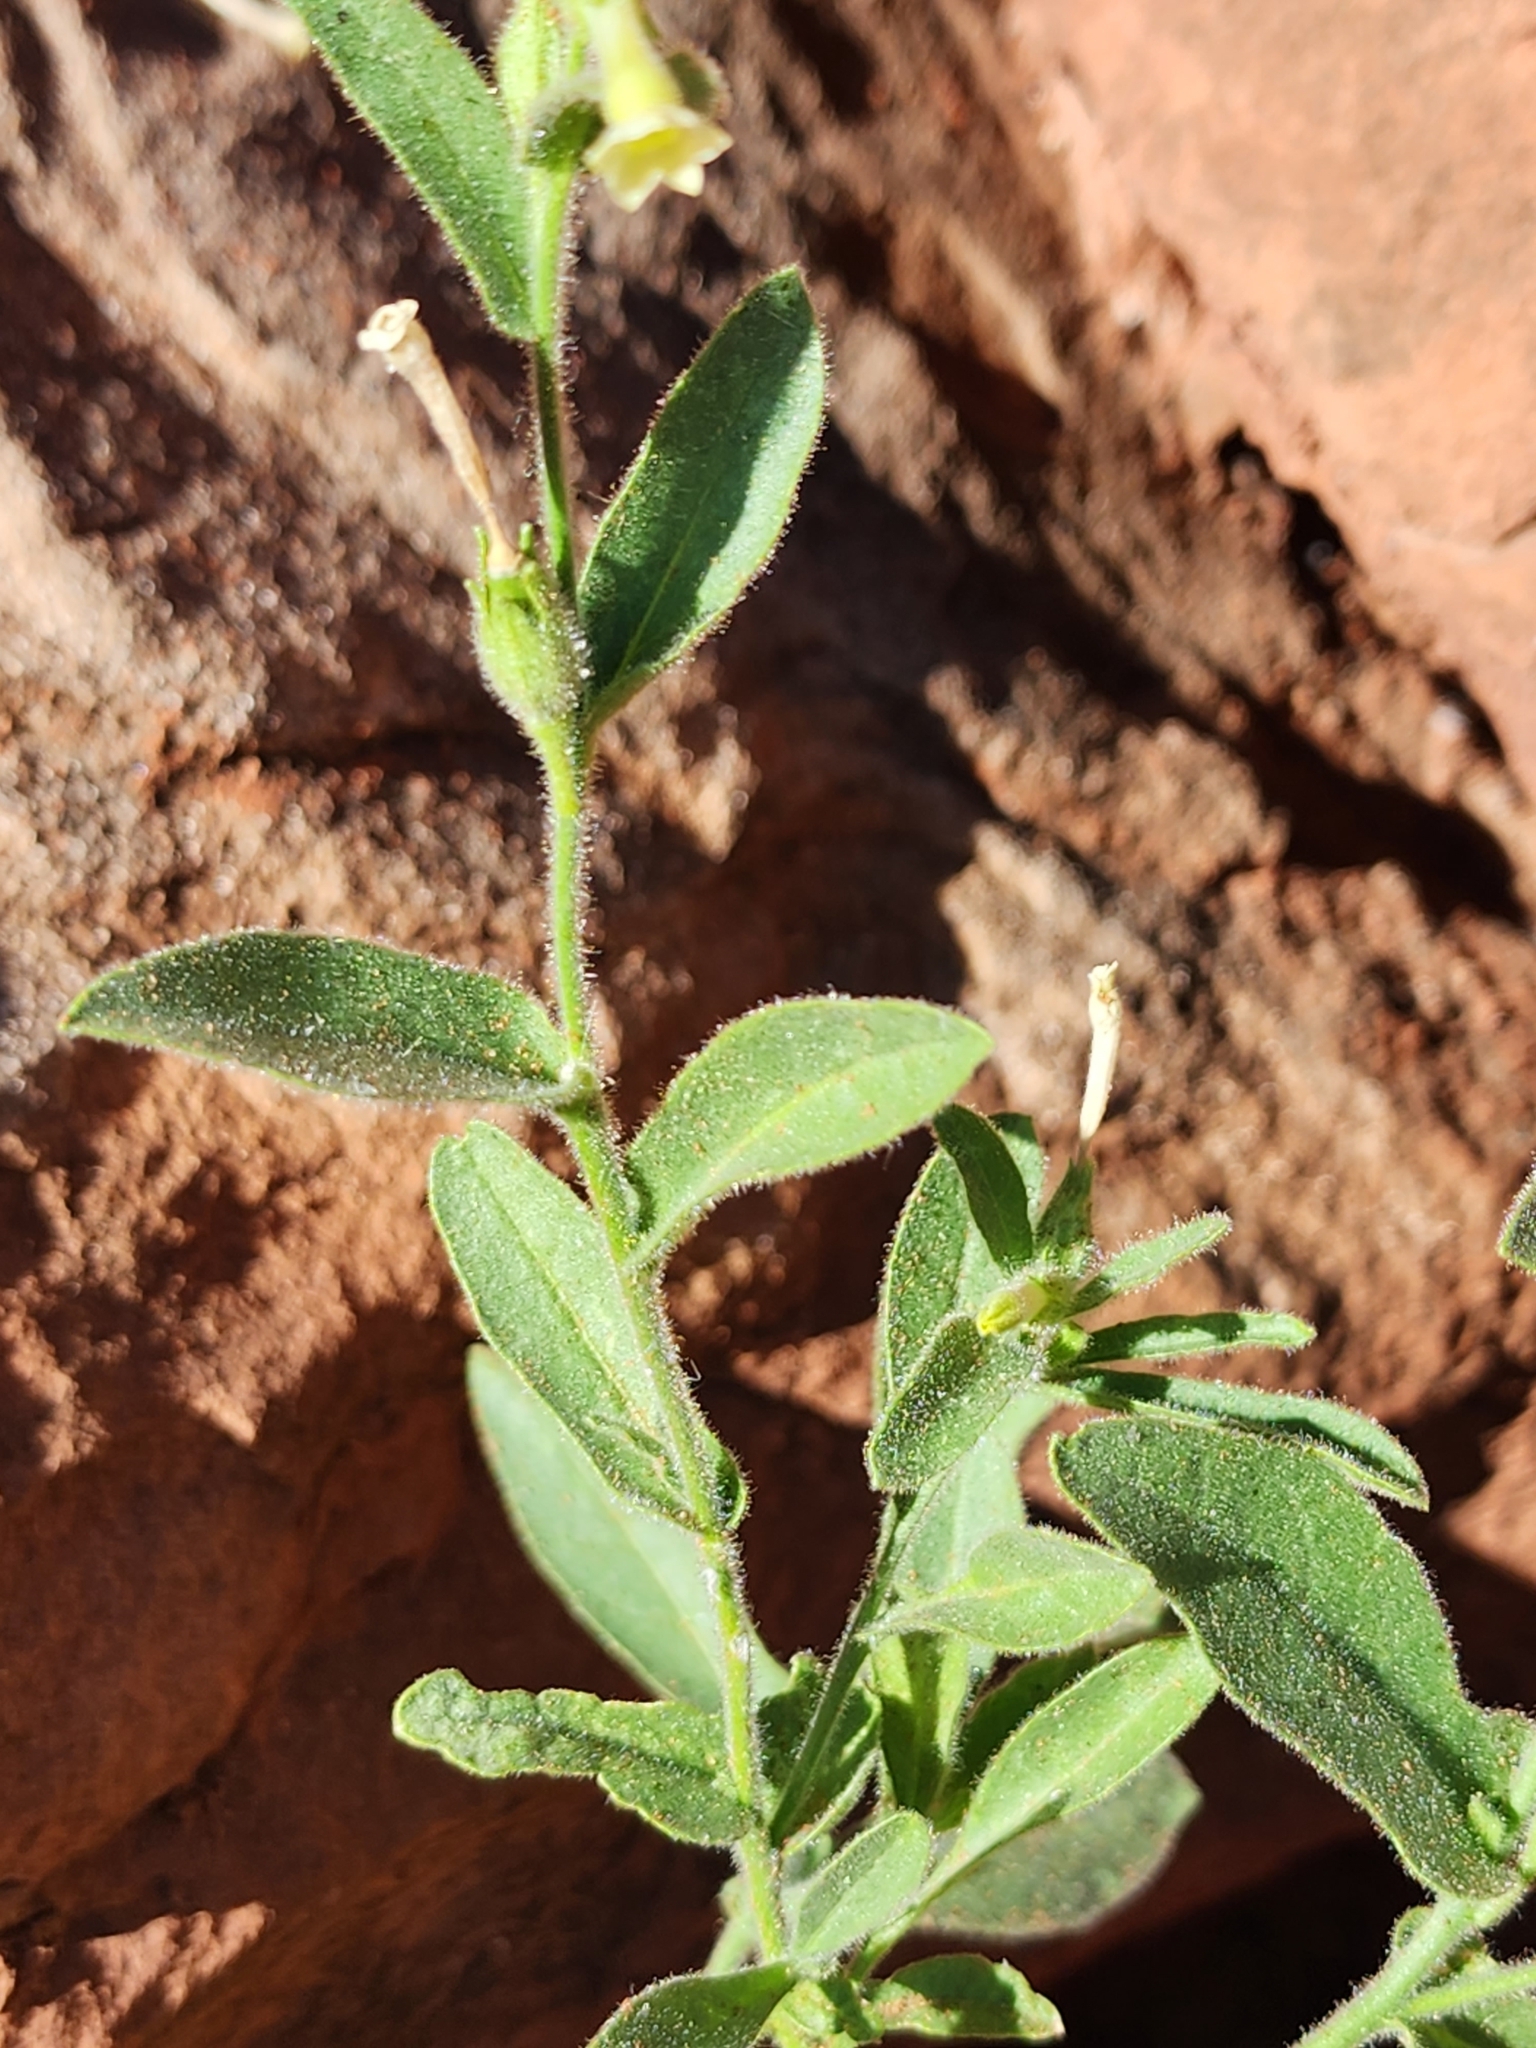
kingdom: Plantae
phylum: Tracheophyta
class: Magnoliopsida
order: Solanales
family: Solanaceae
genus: Nicotiana
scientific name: Nicotiana obtusifolia
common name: Desert tobacco
